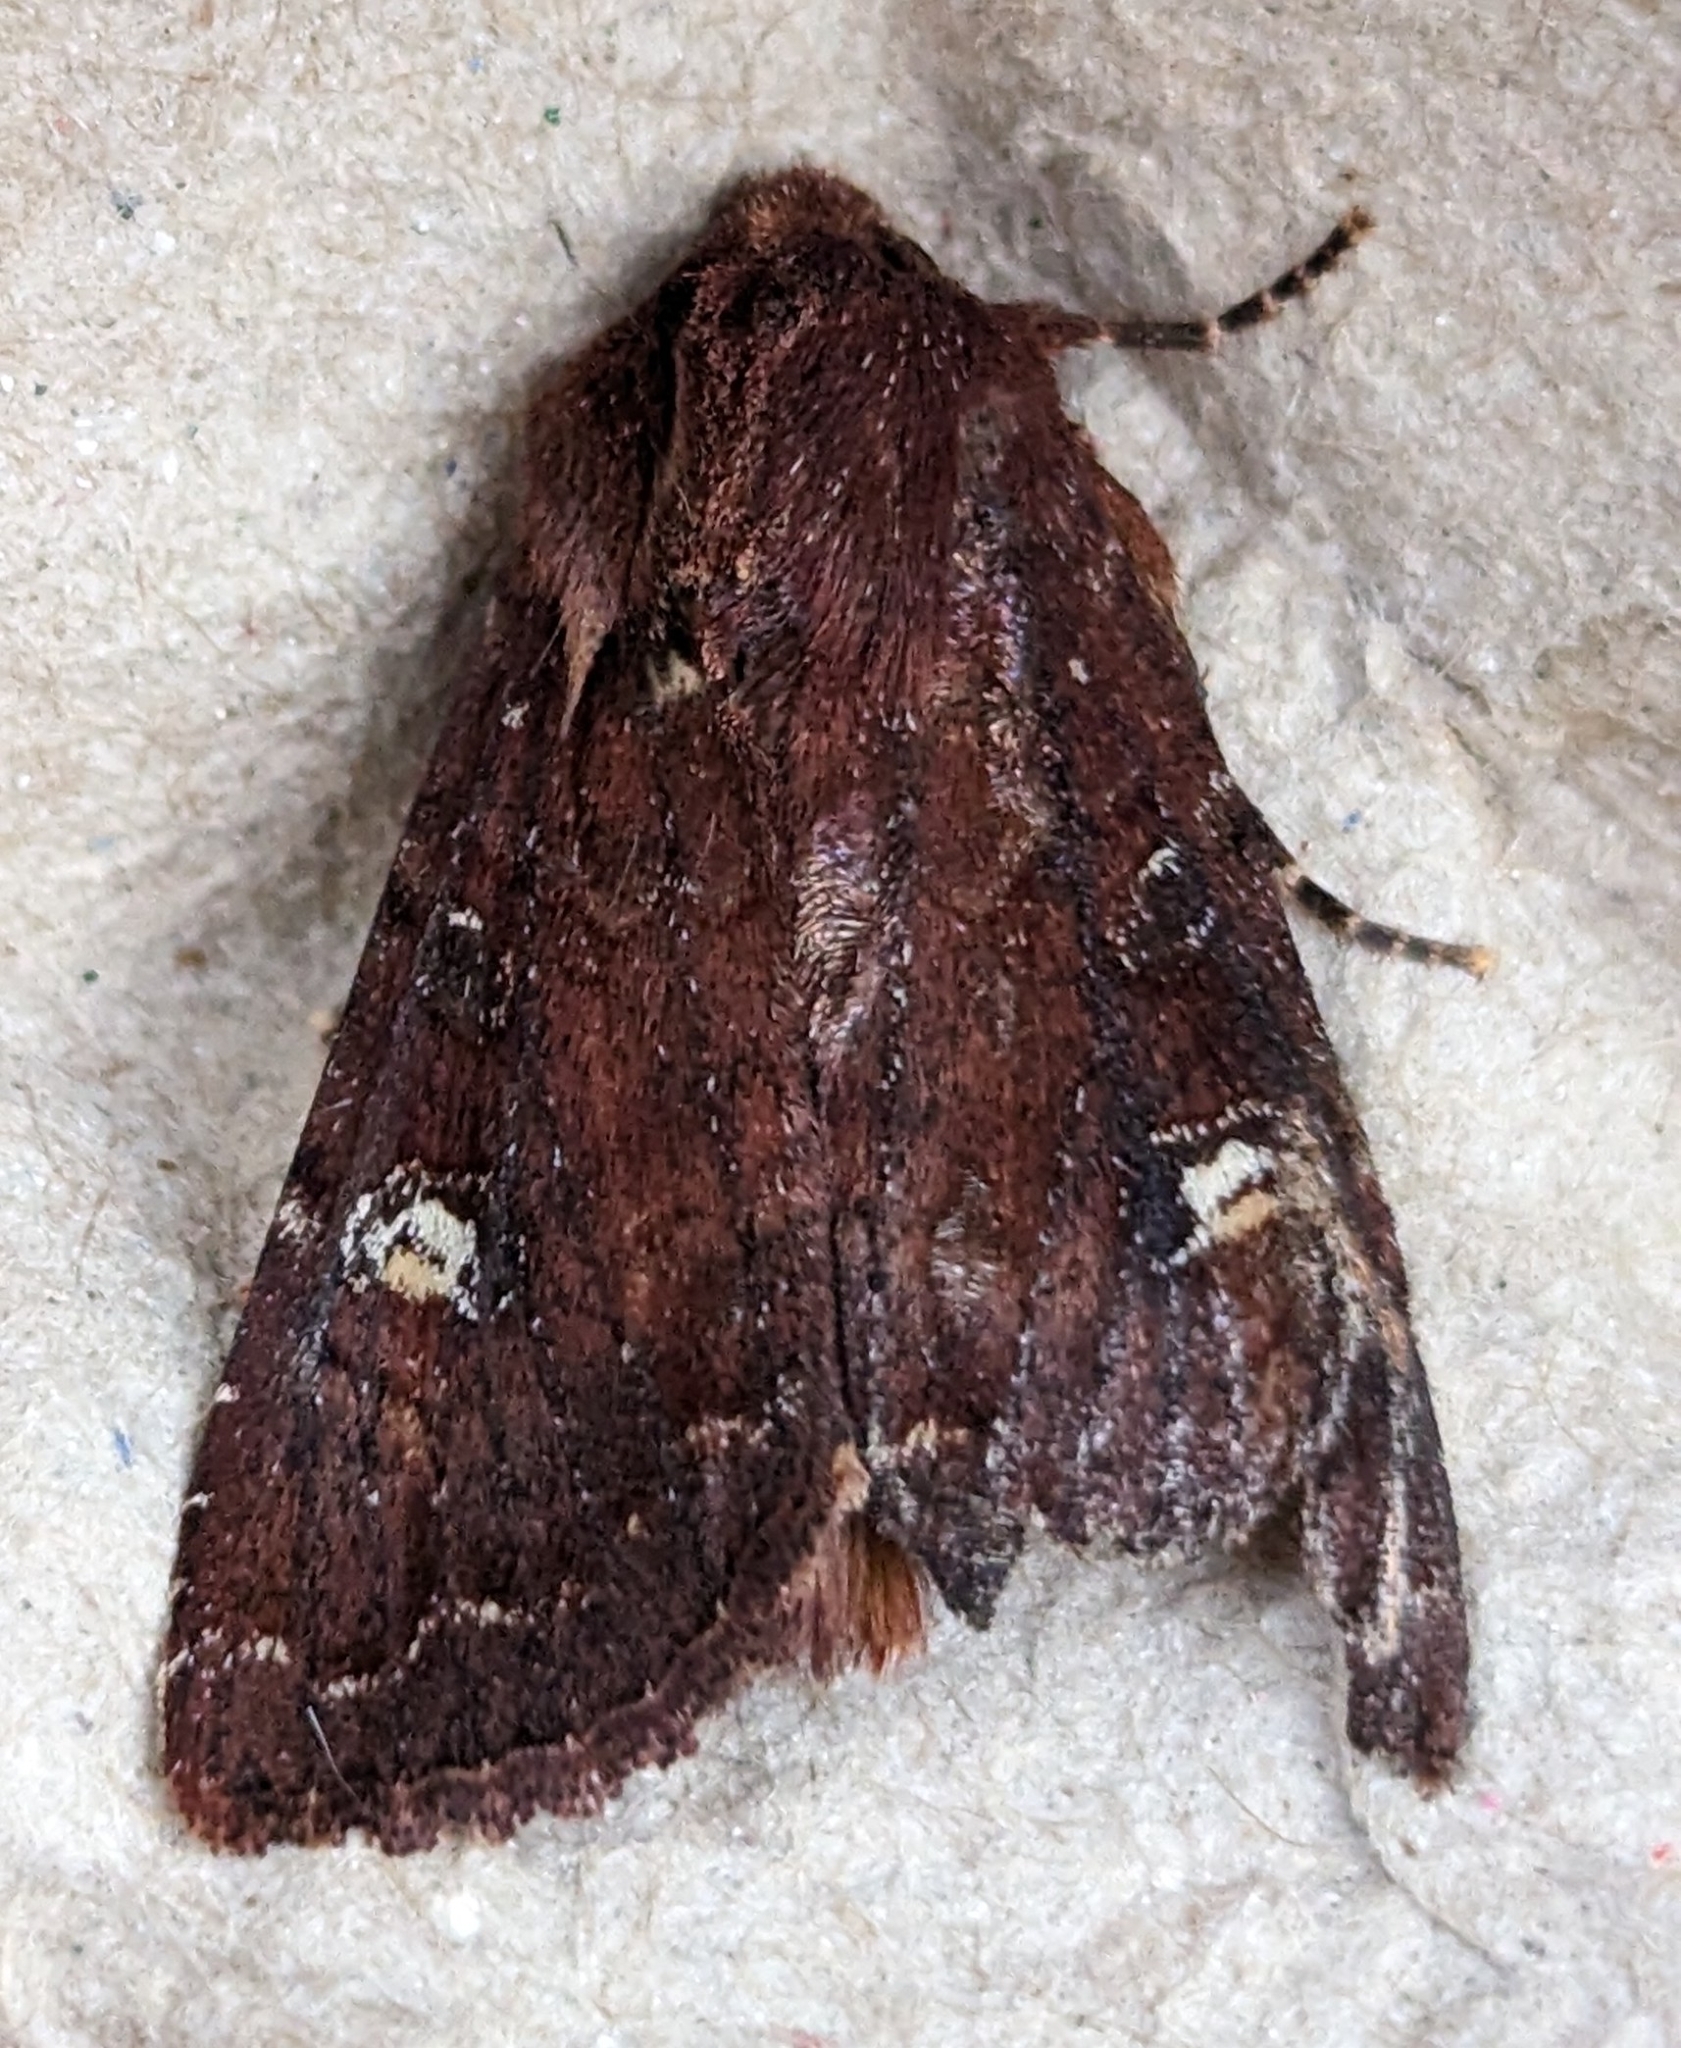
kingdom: Animalia
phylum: Arthropoda
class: Insecta
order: Lepidoptera
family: Noctuidae
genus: Apamea
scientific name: Apamea cogitata
